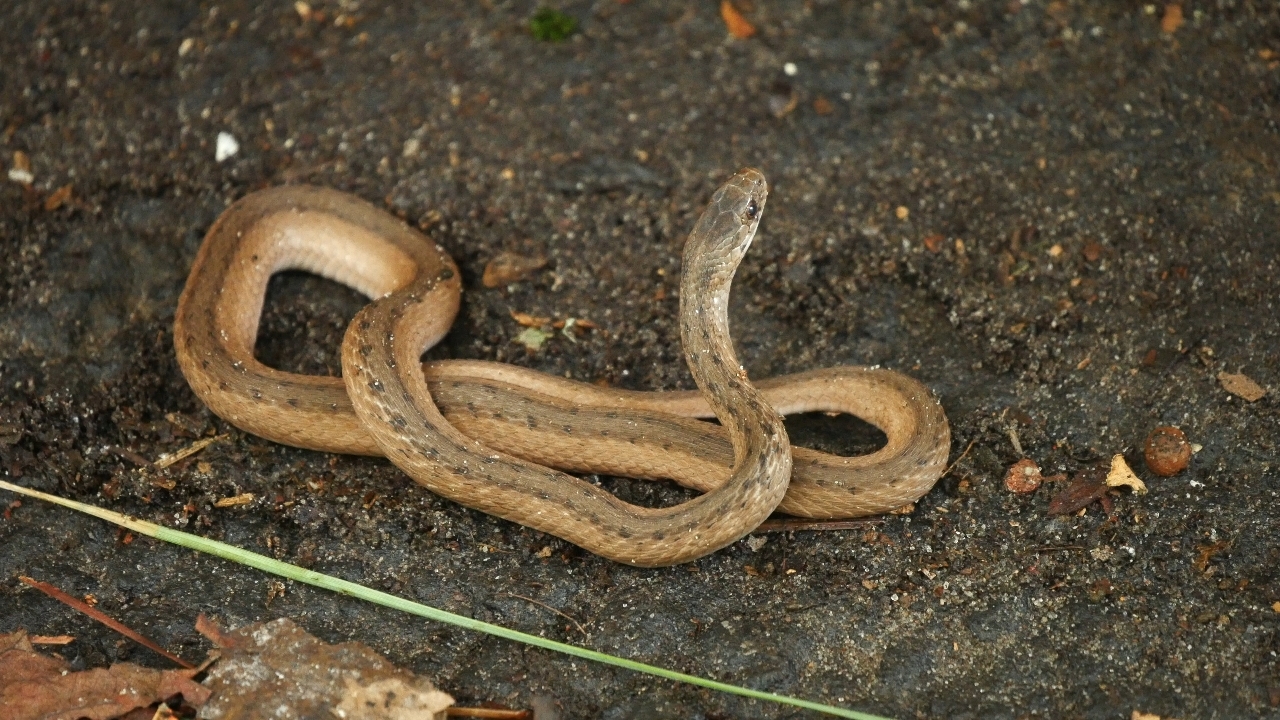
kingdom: Animalia
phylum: Chordata
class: Squamata
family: Colubridae
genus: Storeria
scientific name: Storeria dekayi
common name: (dekay’s) brown snake
